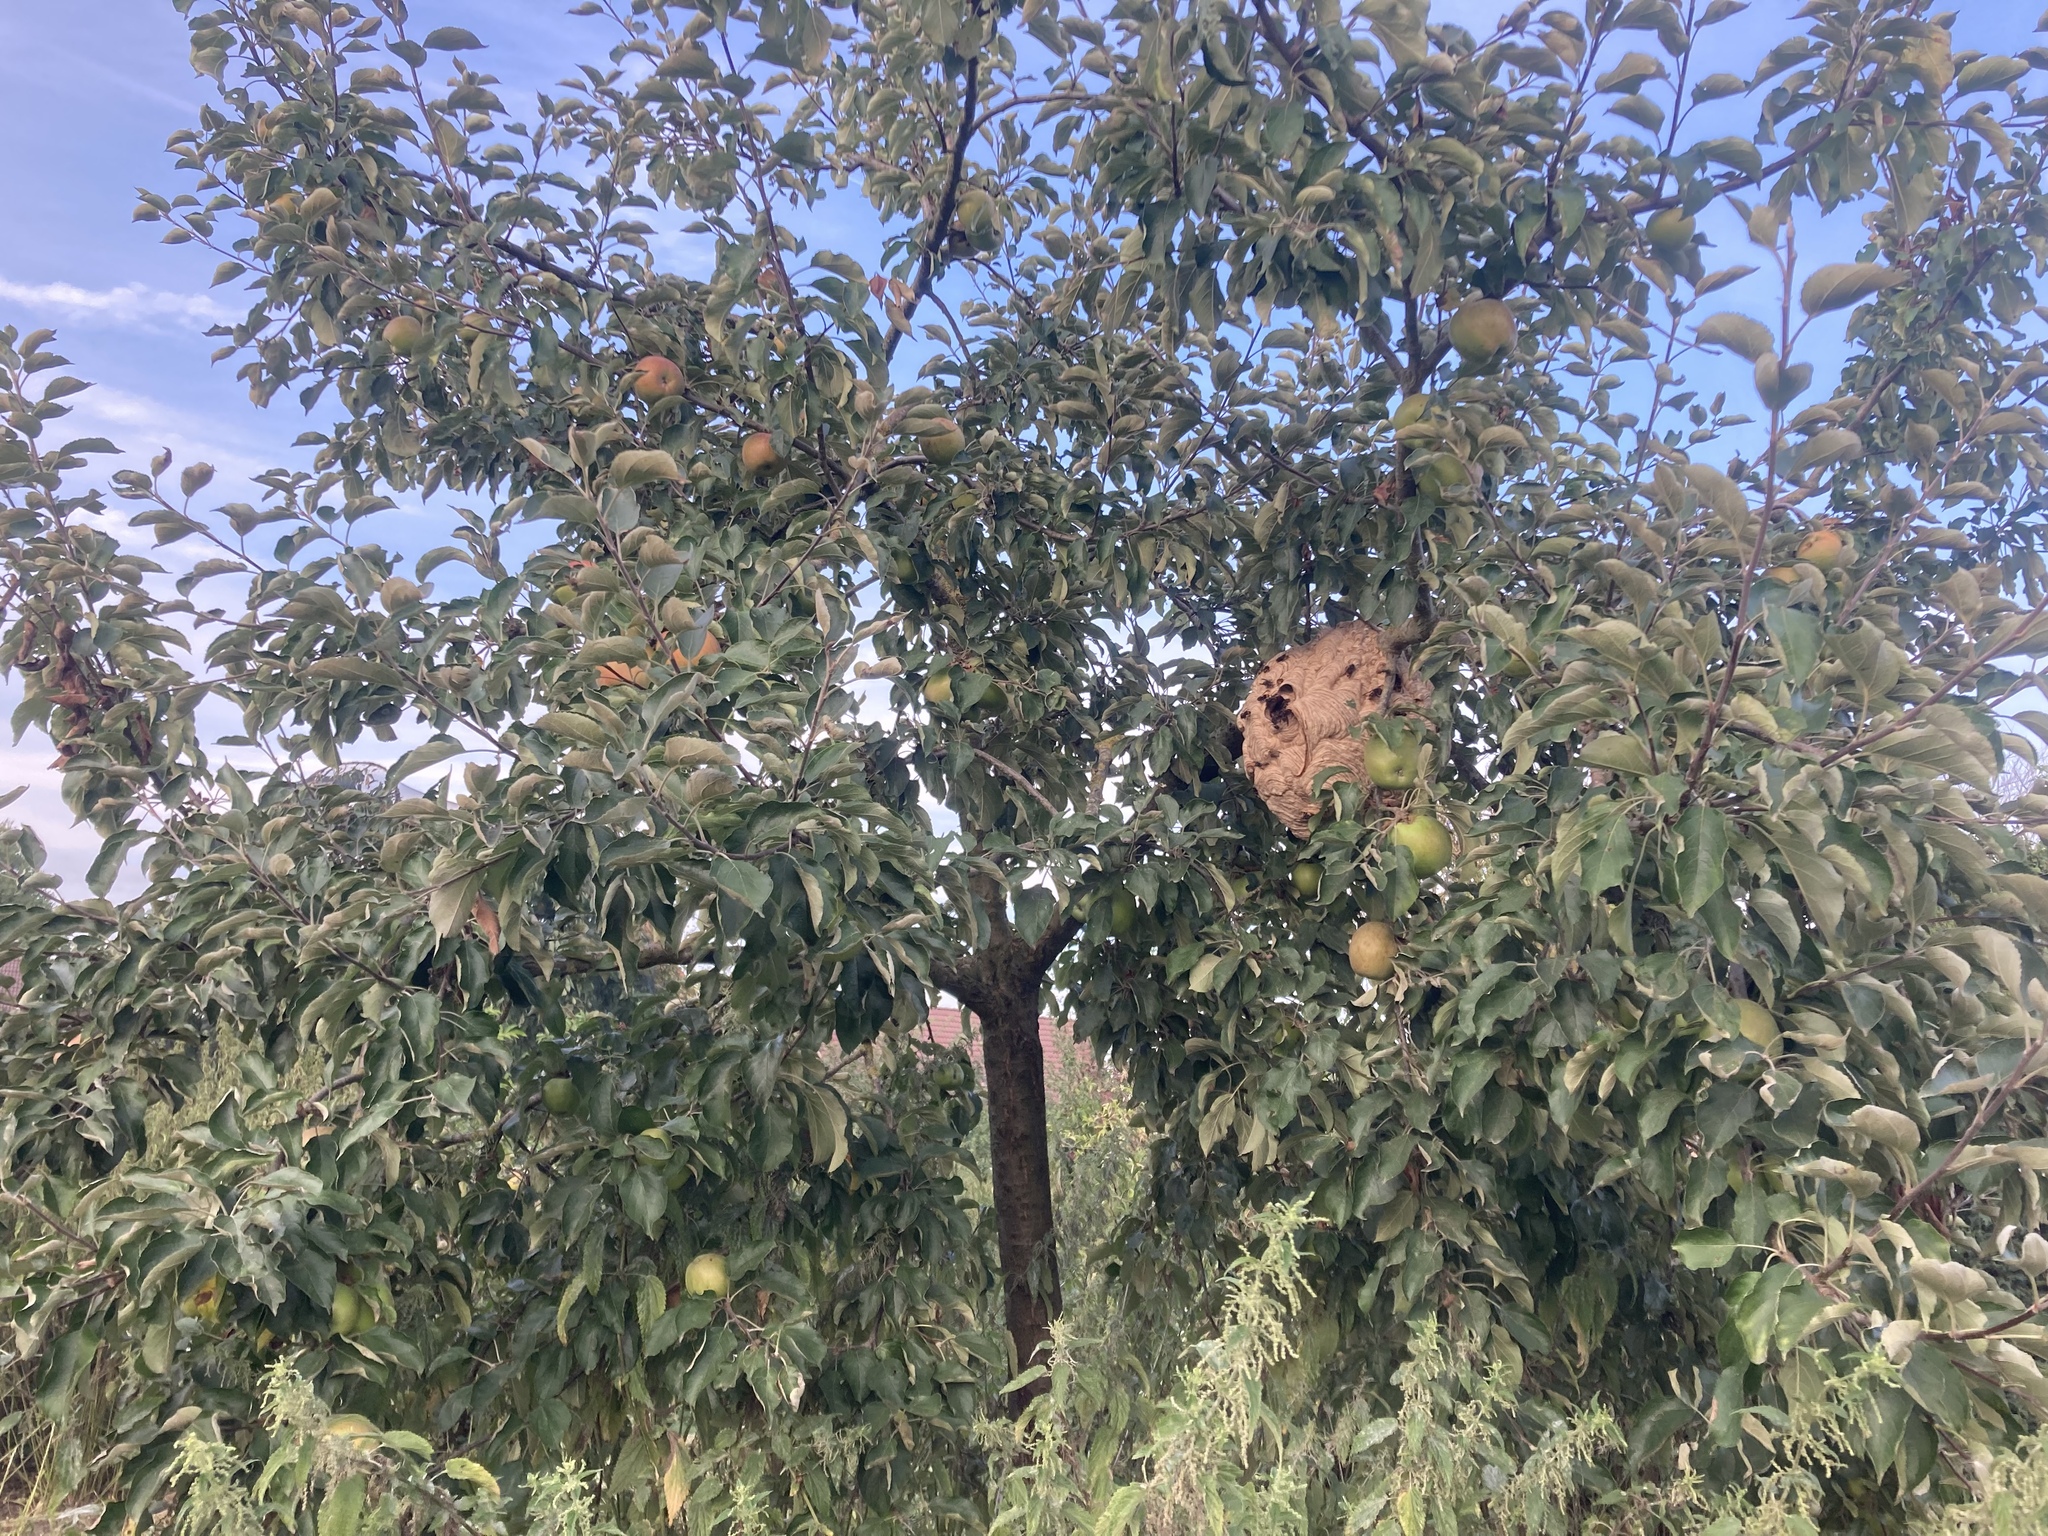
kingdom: Animalia
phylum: Arthropoda
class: Insecta
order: Hymenoptera
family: Vespidae
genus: Vespa
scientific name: Vespa velutina
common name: Asian hornet
